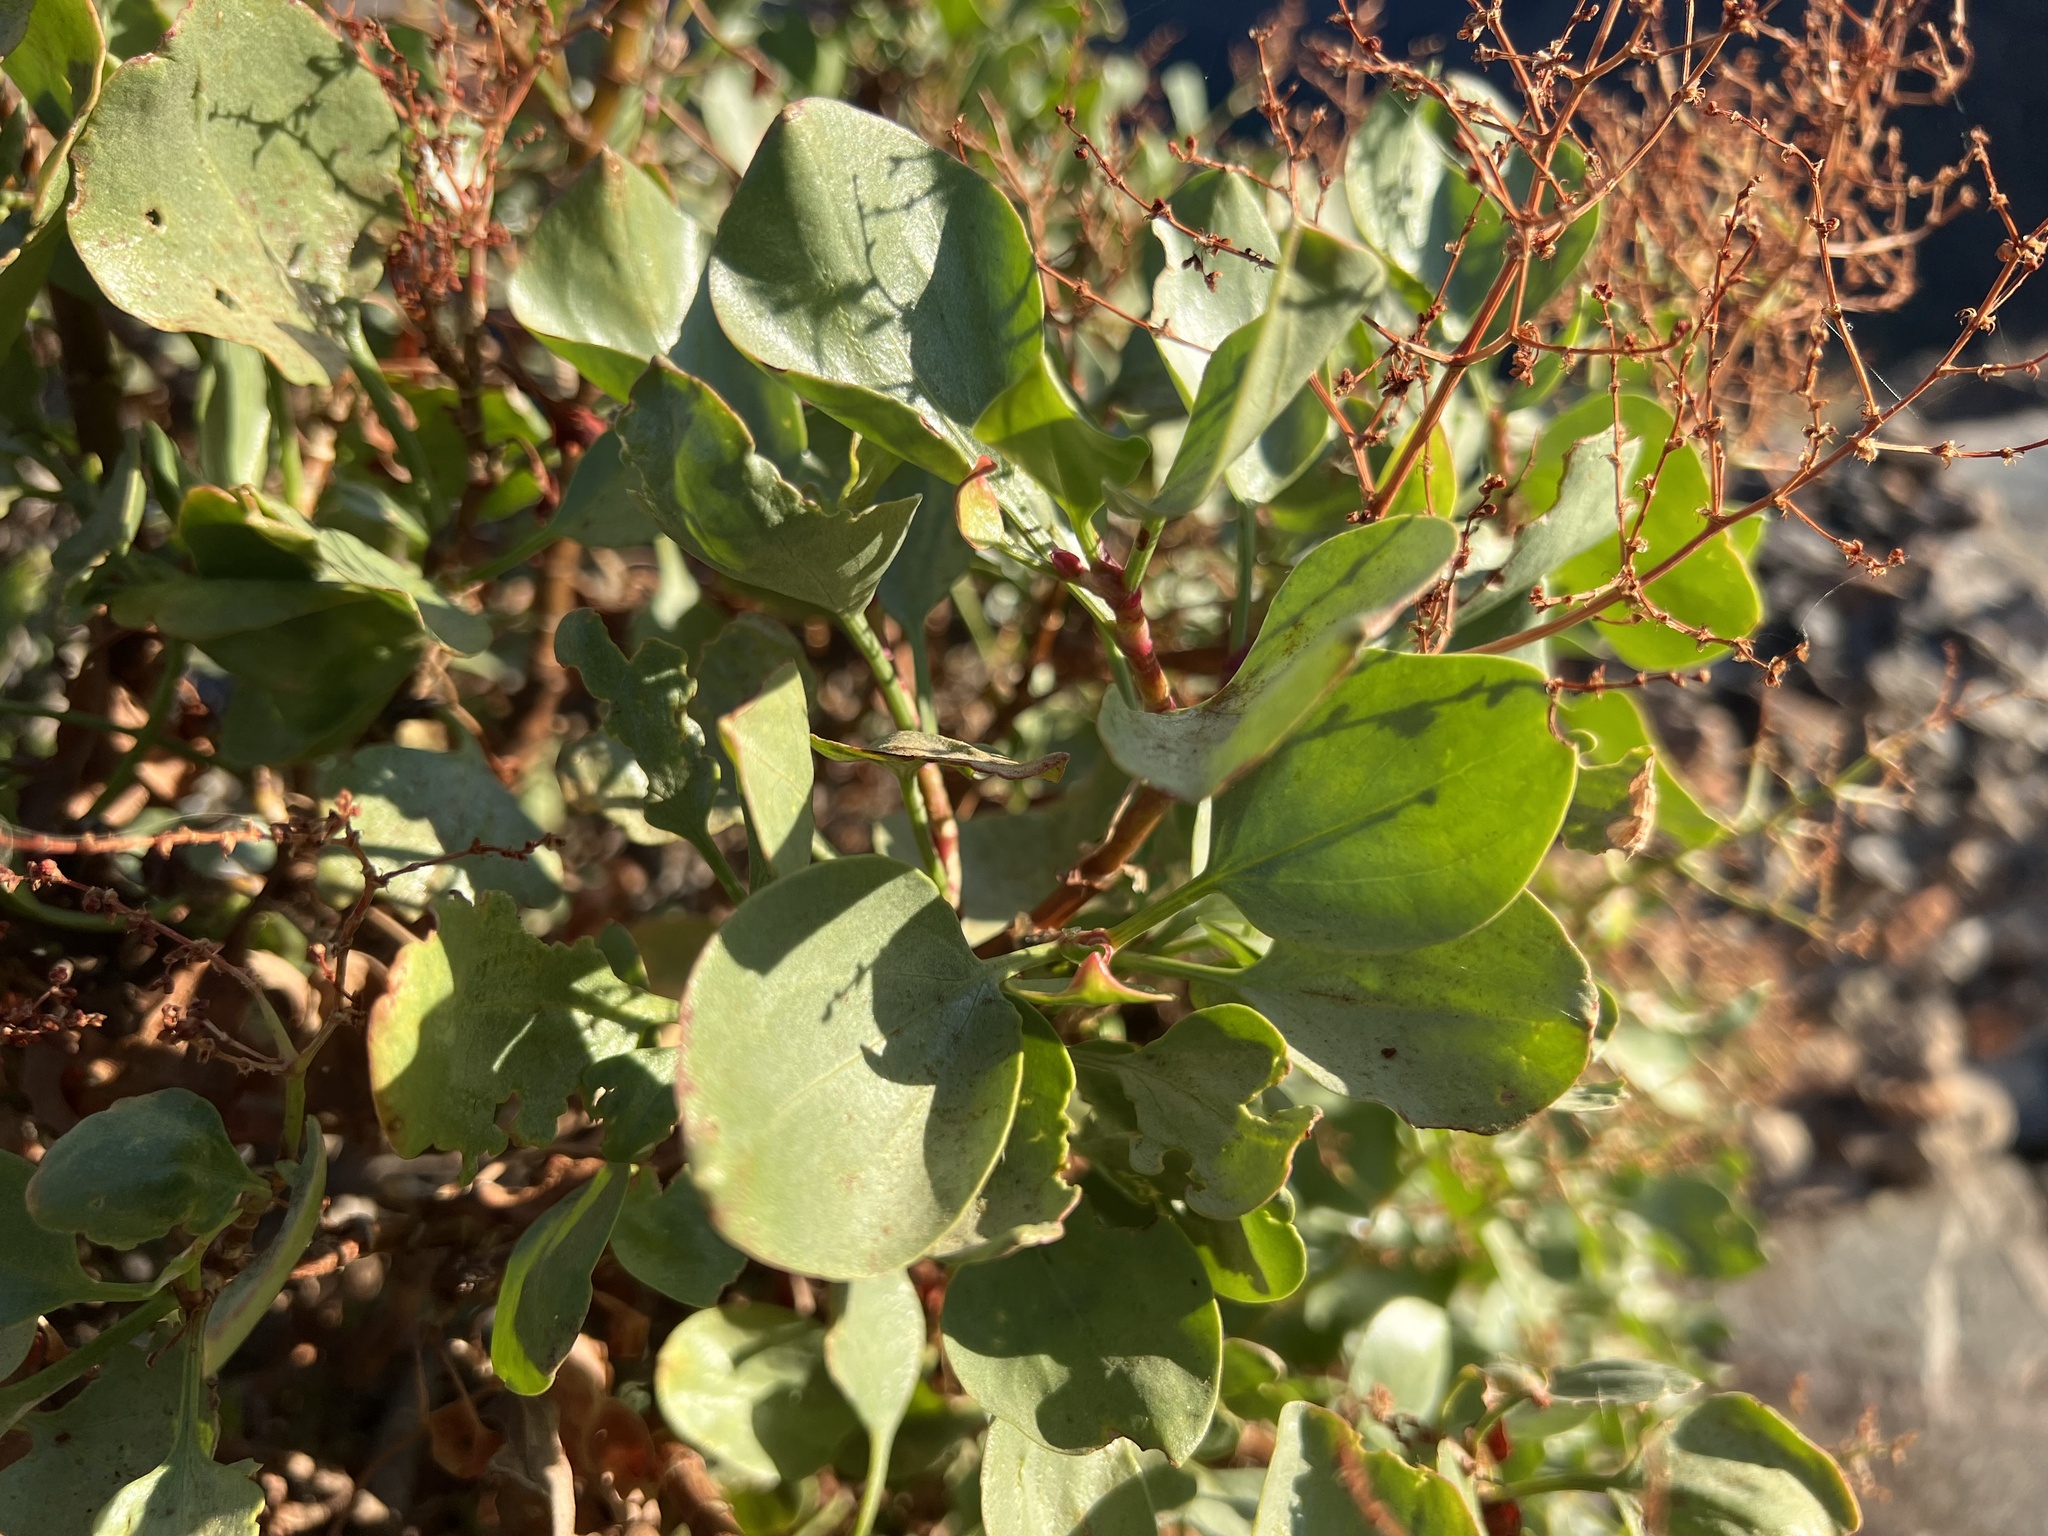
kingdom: Plantae
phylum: Tracheophyta
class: Magnoliopsida
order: Caryophyllales
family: Polygonaceae
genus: Rumex
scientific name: Rumex lunaria
